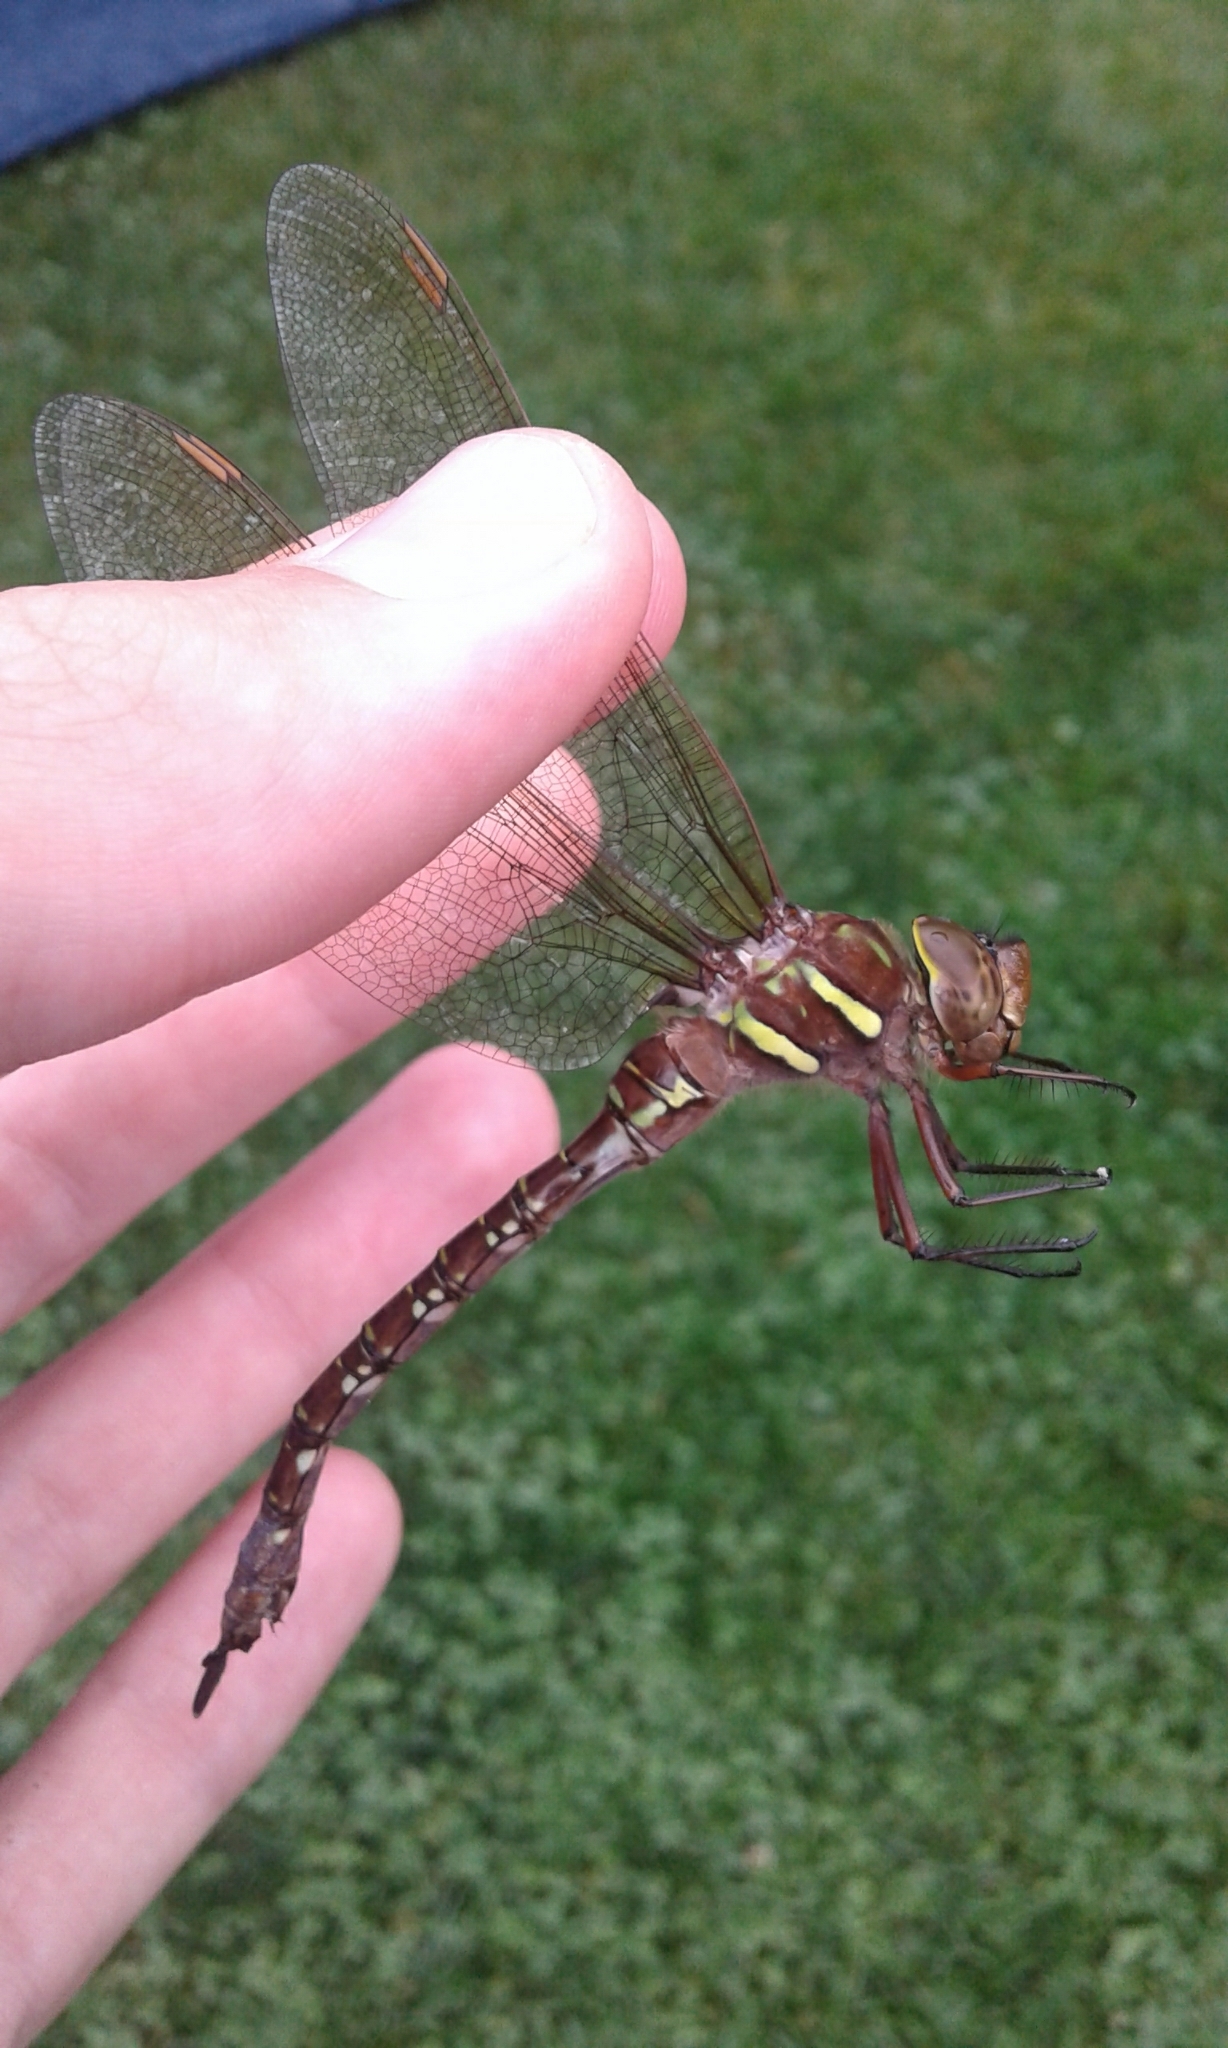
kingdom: Animalia
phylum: Arthropoda
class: Insecta
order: Odonata
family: Aeshnidae
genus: Aeshna
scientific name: Aeshna umbrosa
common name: Shadow darner
